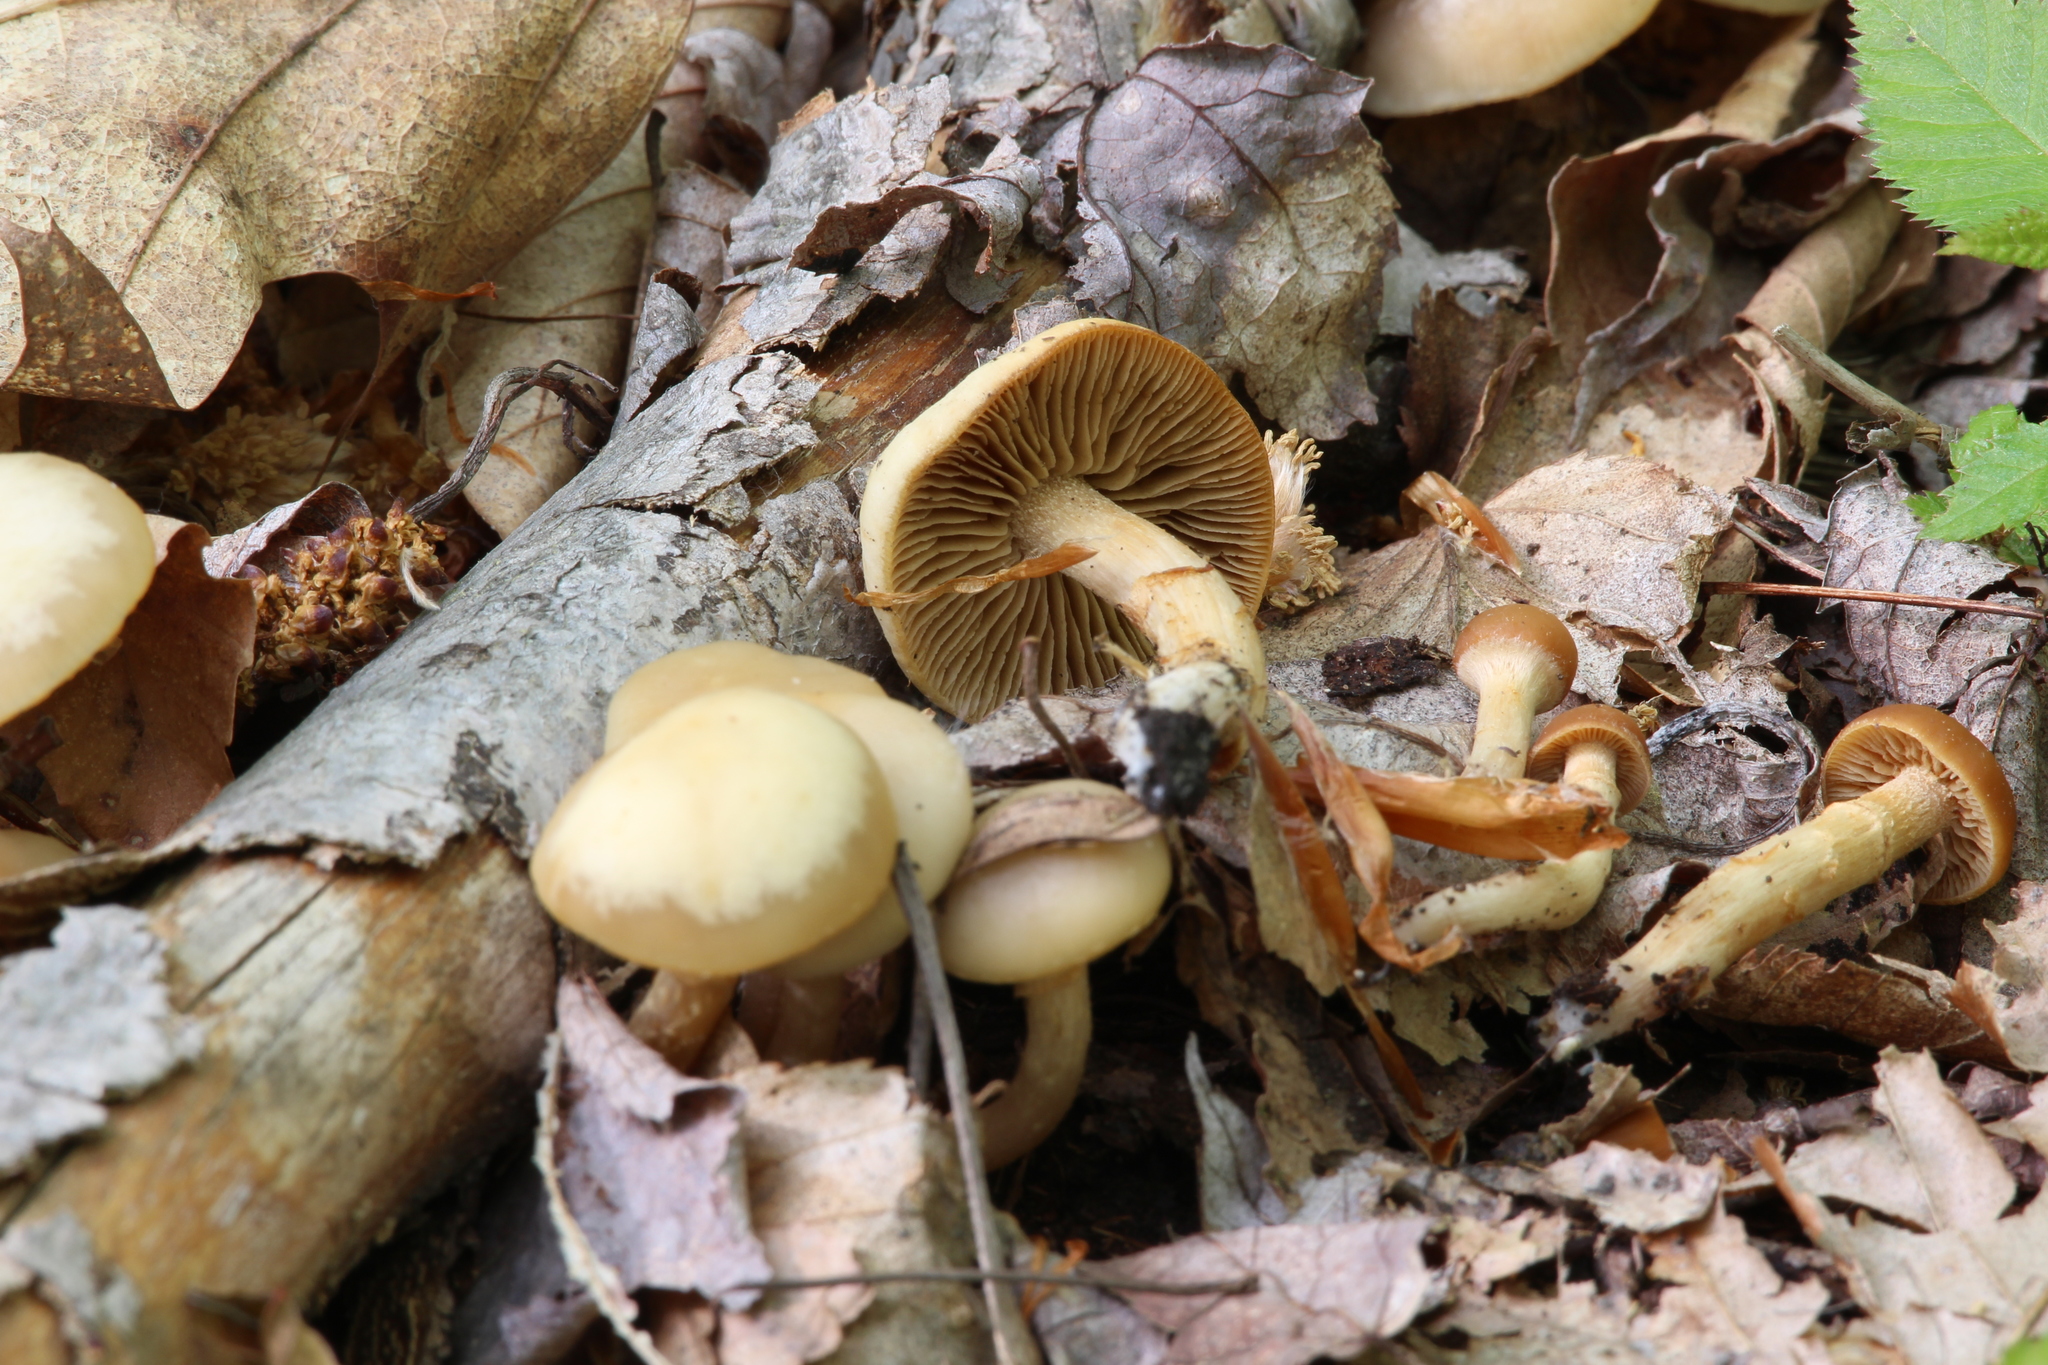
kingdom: Fungi
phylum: Basidiomycota
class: Agaricomycetes
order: Agaricales
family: Strophariaceae
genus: Kuehneromyces
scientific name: Kuehneromyces marginellus
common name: Sheathed woodtuft
